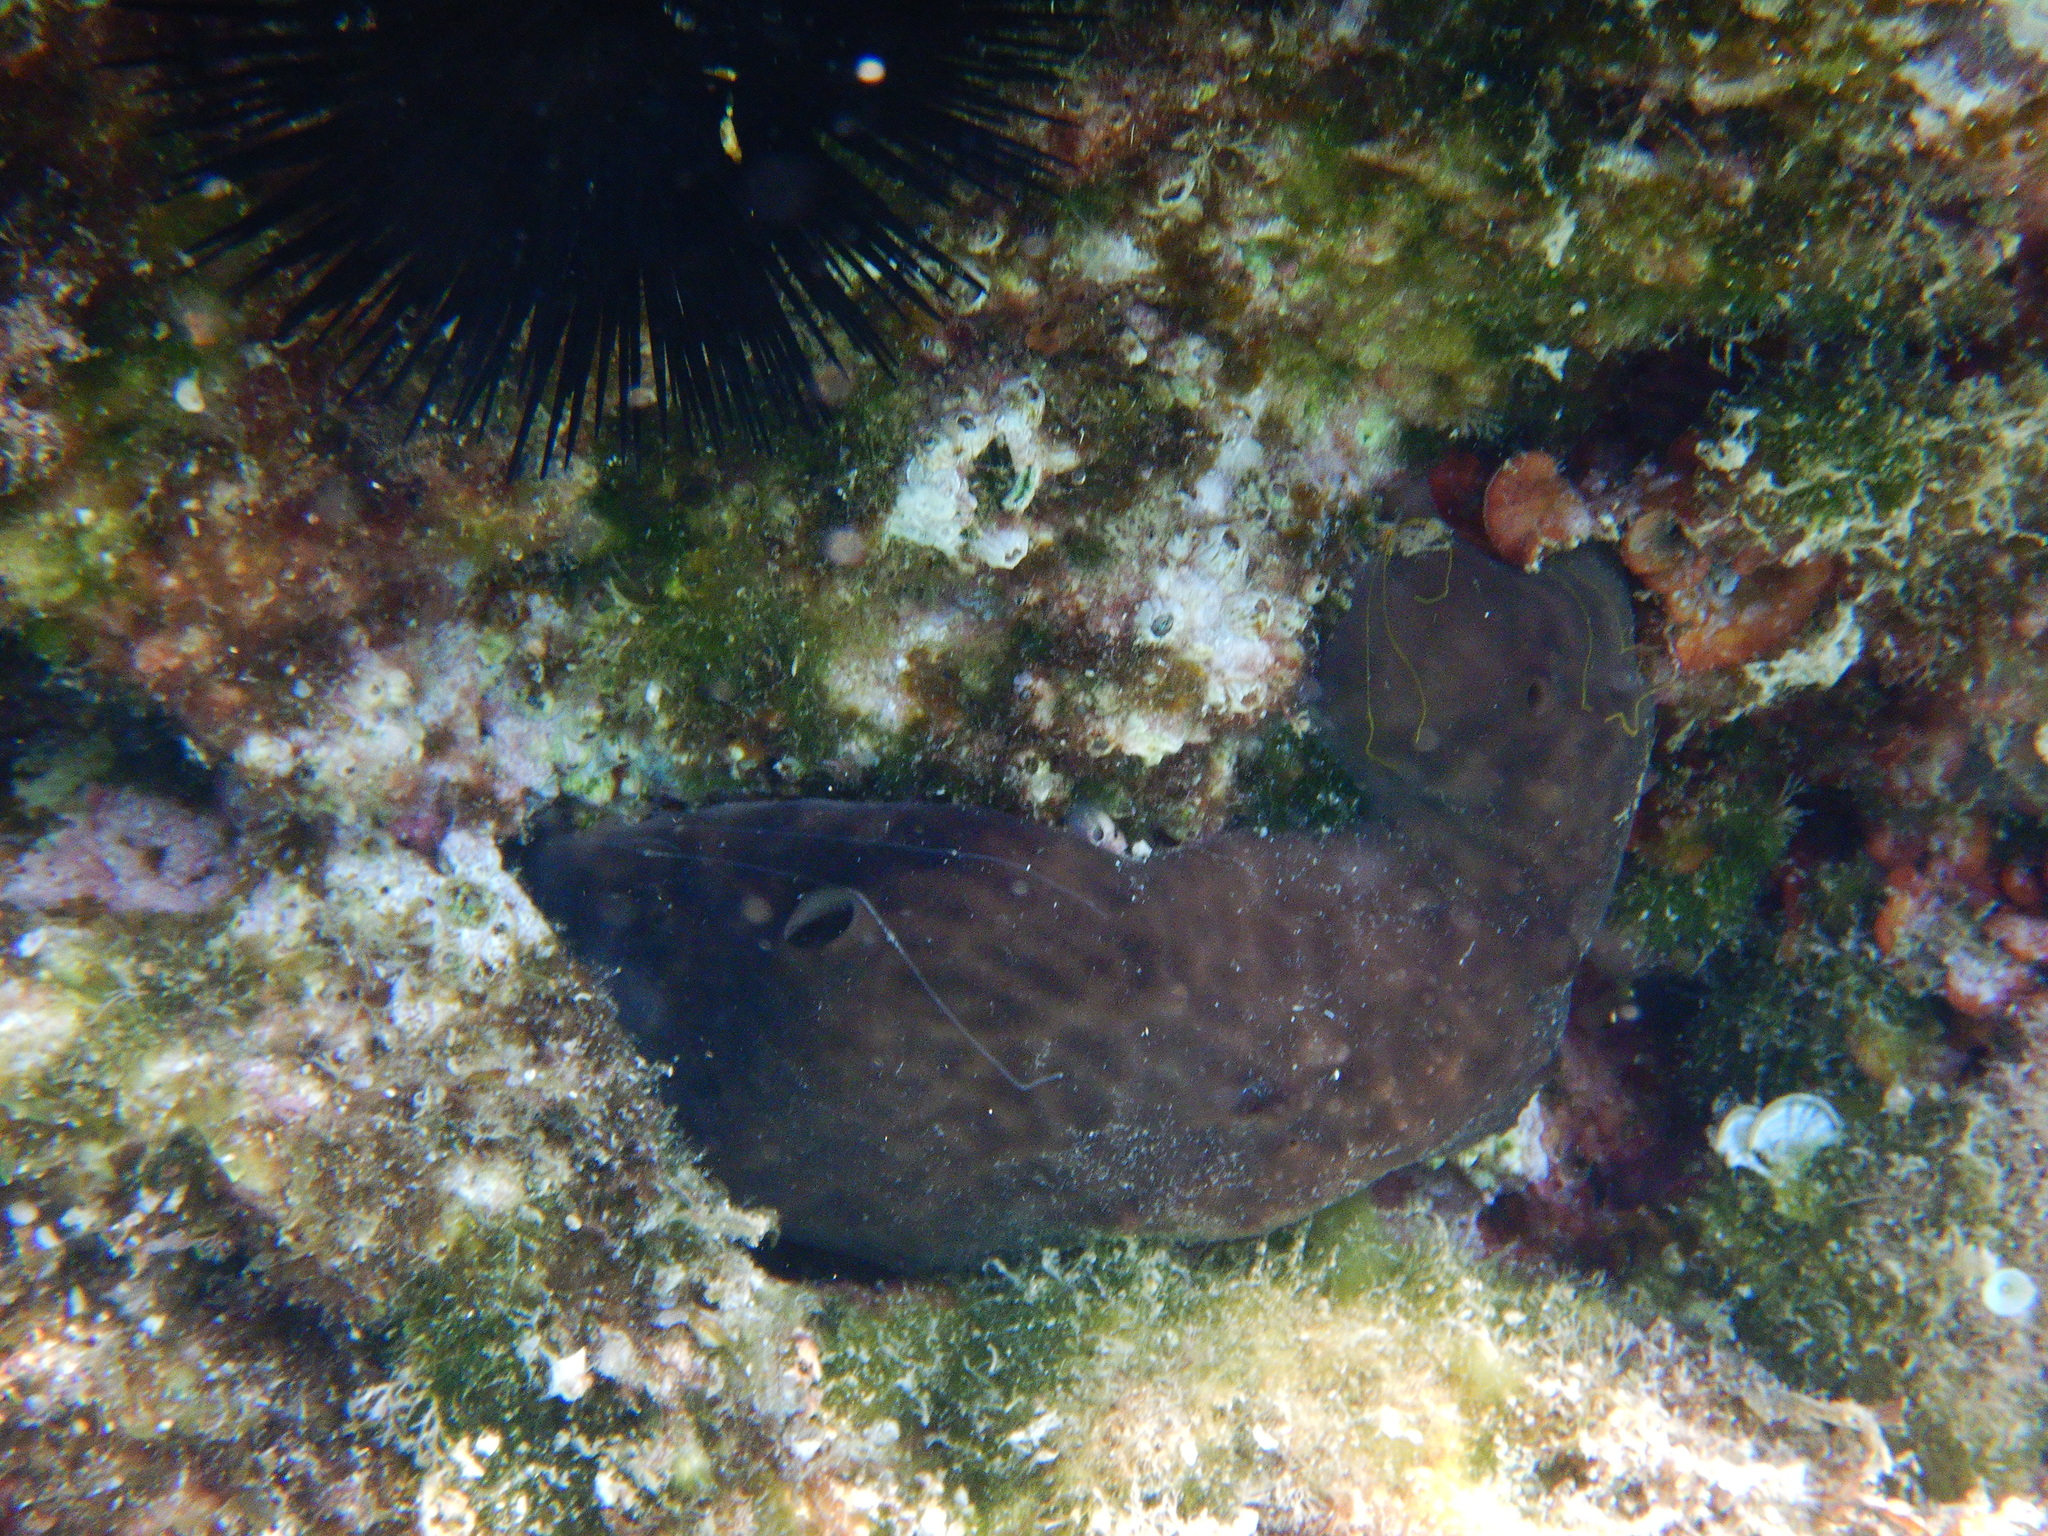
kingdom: Animalia
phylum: Porifera
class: Demospongiae
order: Chondrosiida
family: Chondrosiidae
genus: Chondrosia
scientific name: Chondrosia reniformis
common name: Chicken liver sponge
